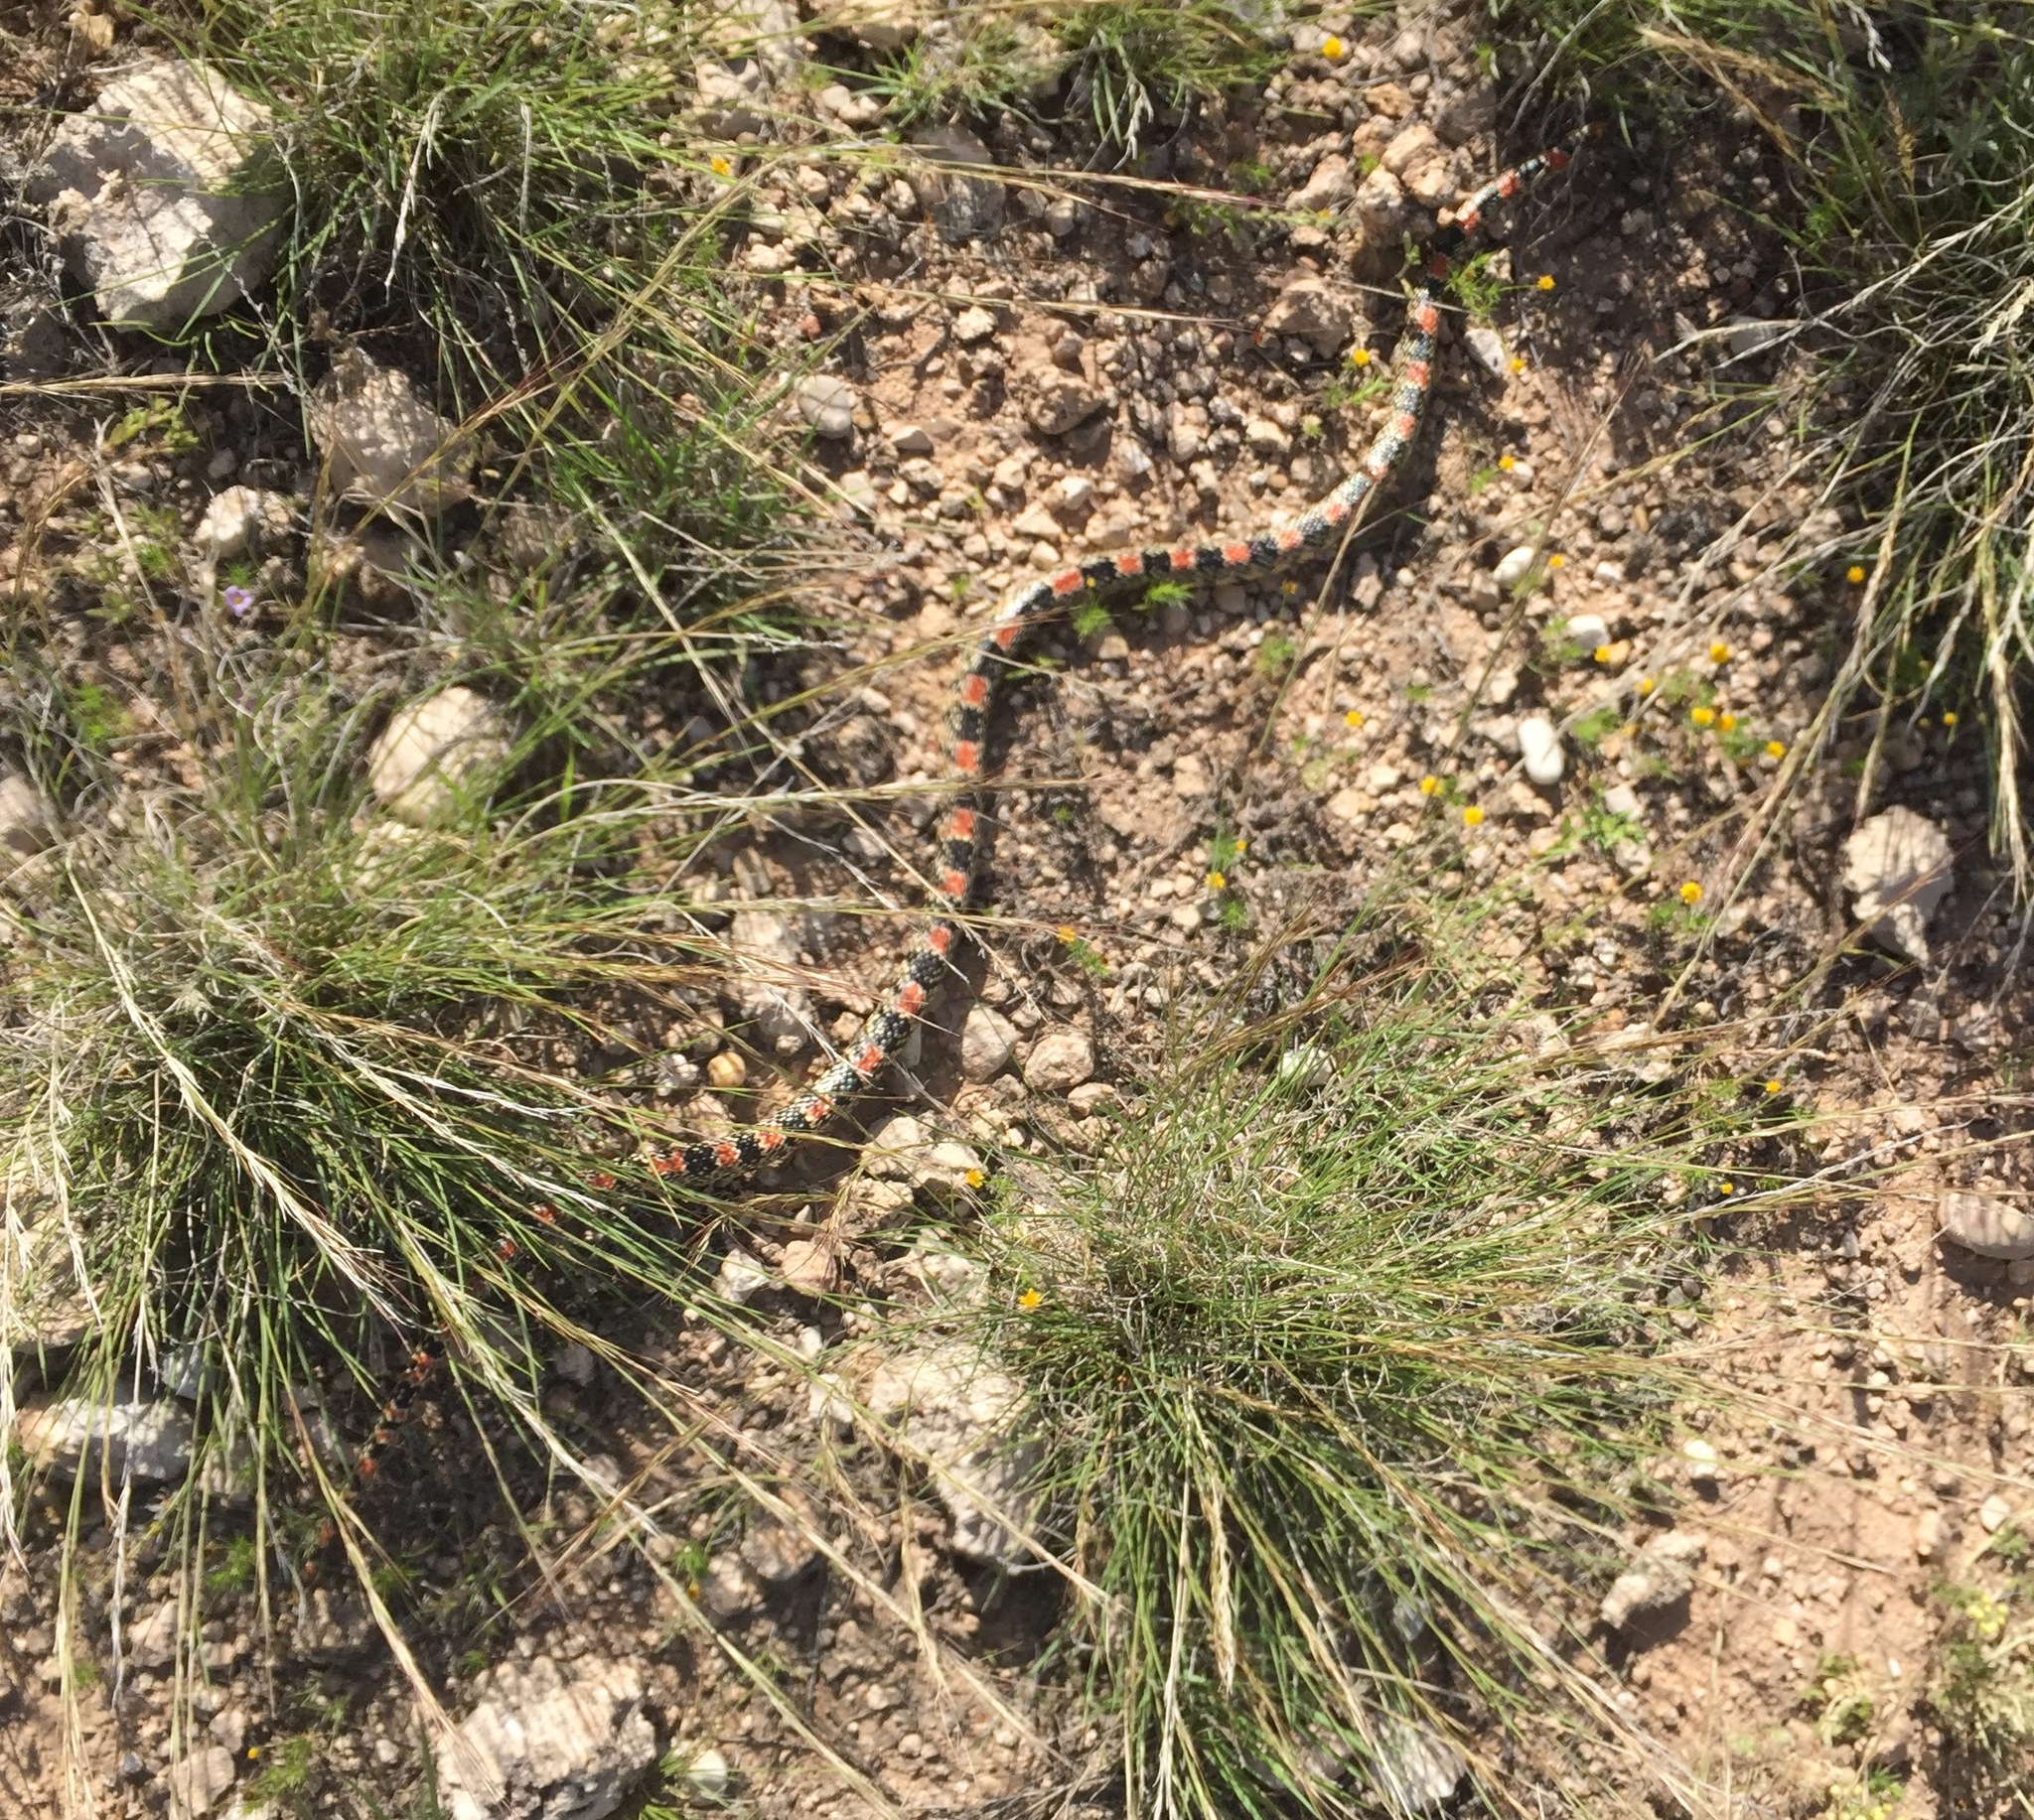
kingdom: Animalia
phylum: Chordata
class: Squamata
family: Colubridae
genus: Rhinocheilus
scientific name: Rhinocheilus lecontei
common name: Longnose snake
